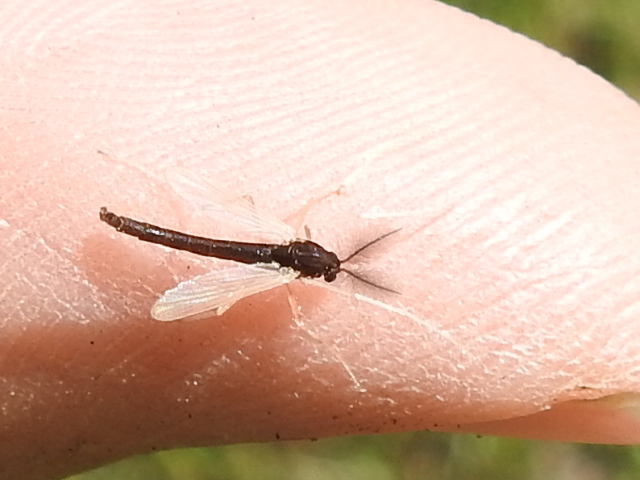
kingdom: Animalia
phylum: Arthropoda
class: Insecta
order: Diptera
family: Chironomidae
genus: Hyporhygma
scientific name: Hyporhygma quadripunctatus
